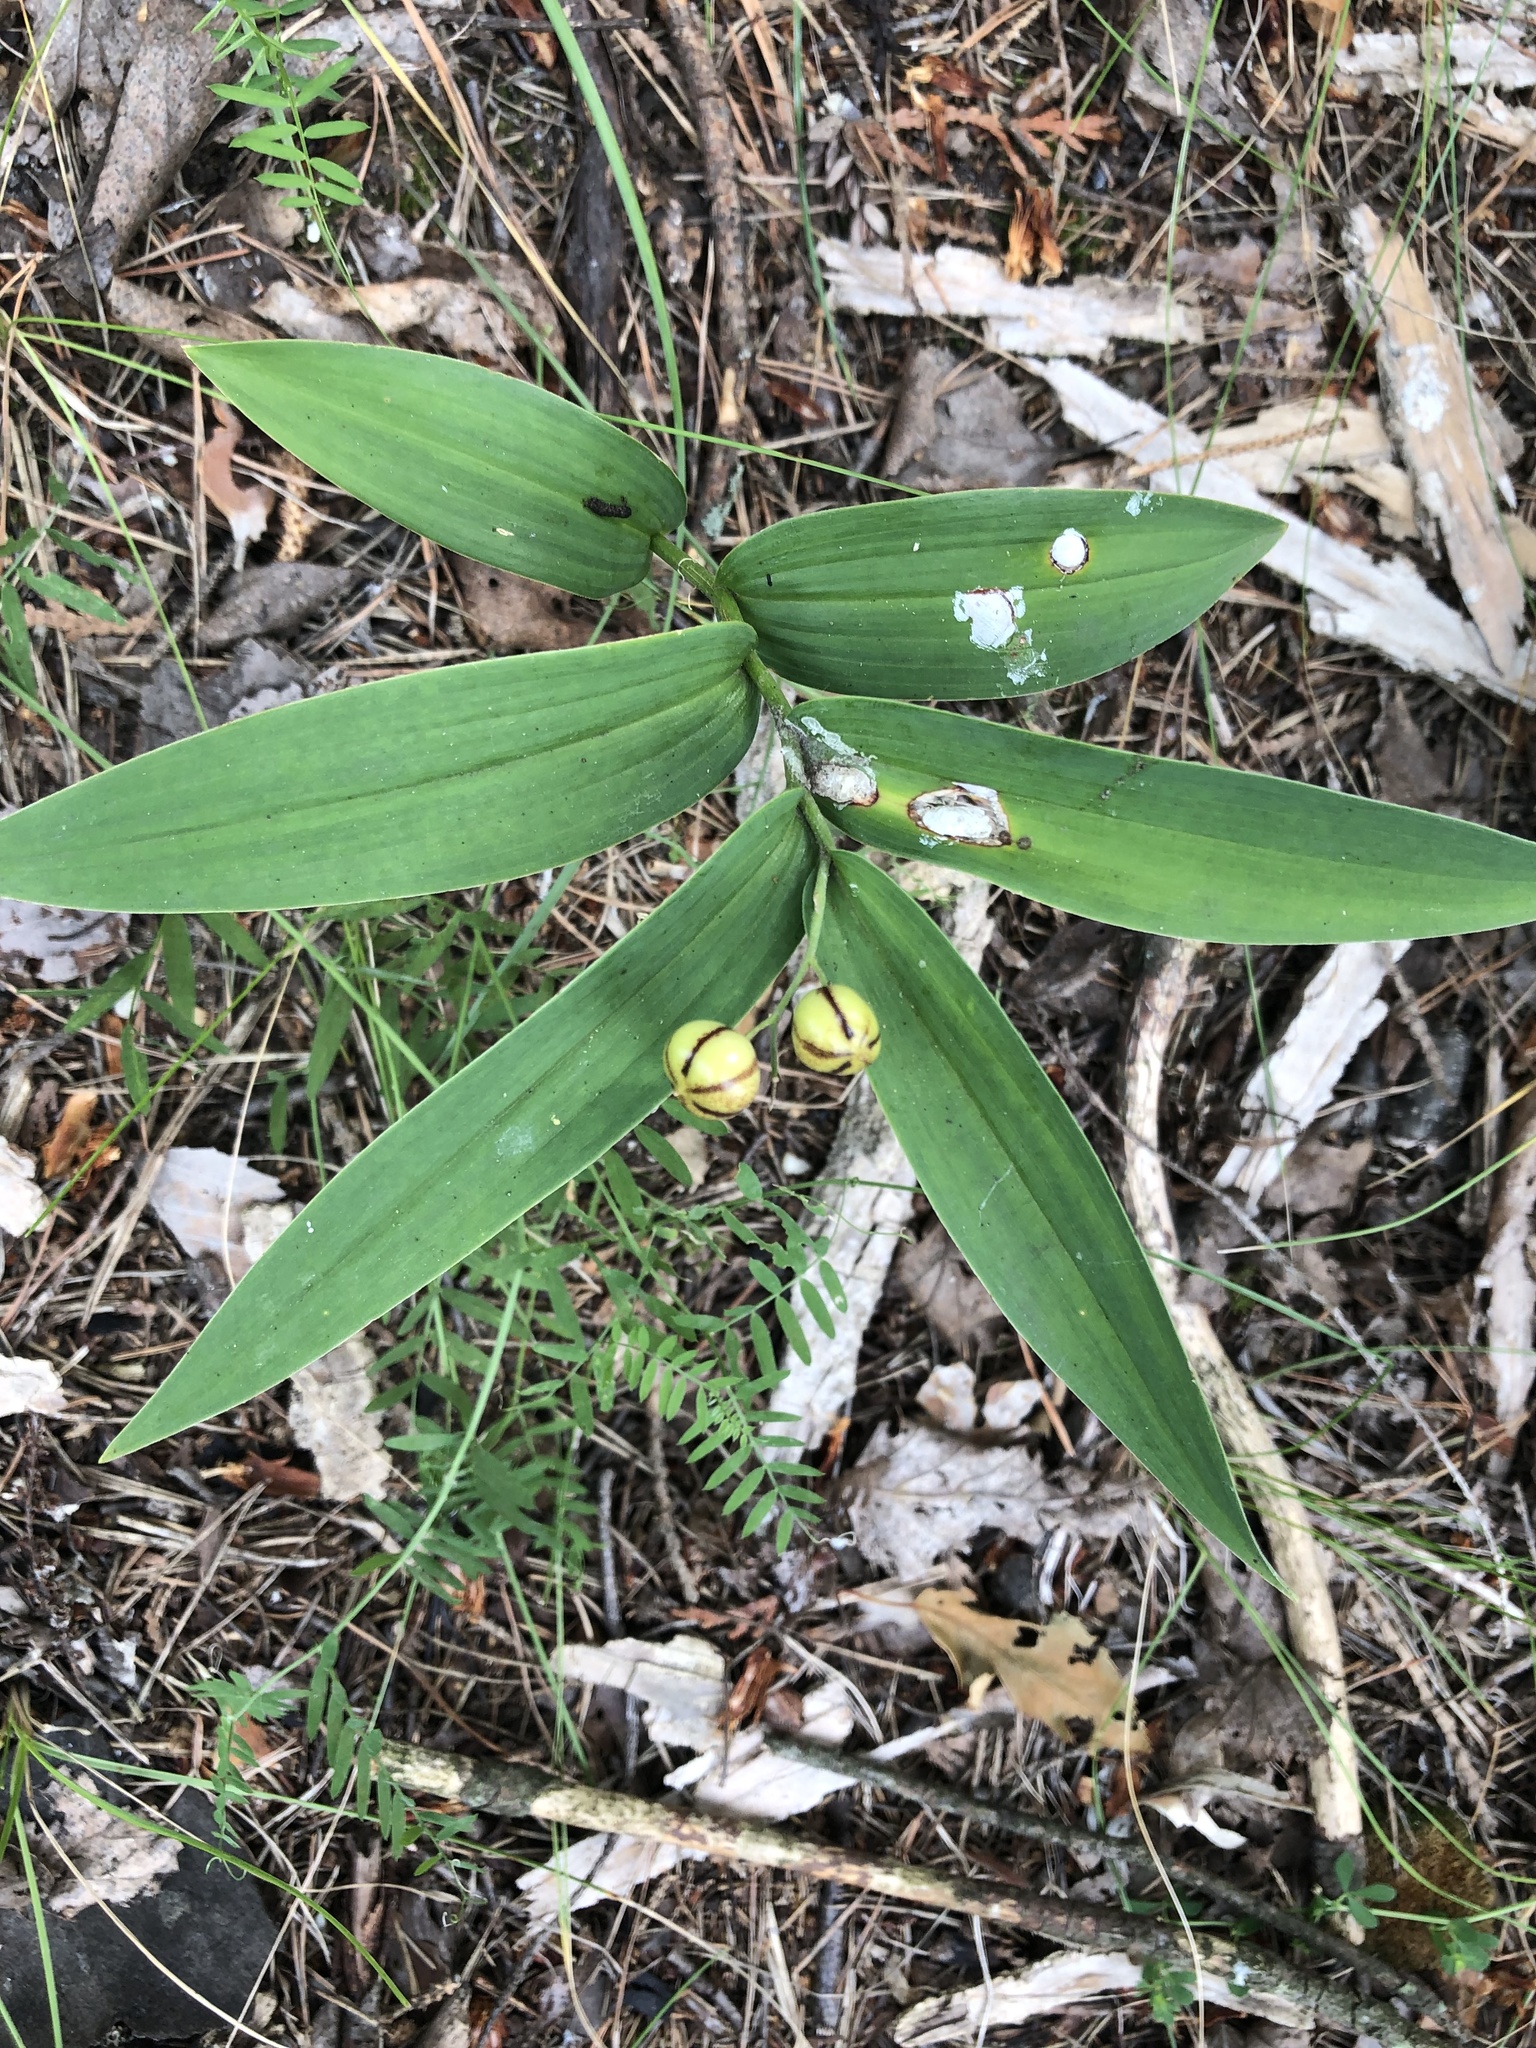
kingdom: Plantae
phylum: Tracheophyta
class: Liliopsida
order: Asparagales
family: Asparagaceae
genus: Maianthemum
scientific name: Maianthemum stellatum
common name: Little false solomon's seal
